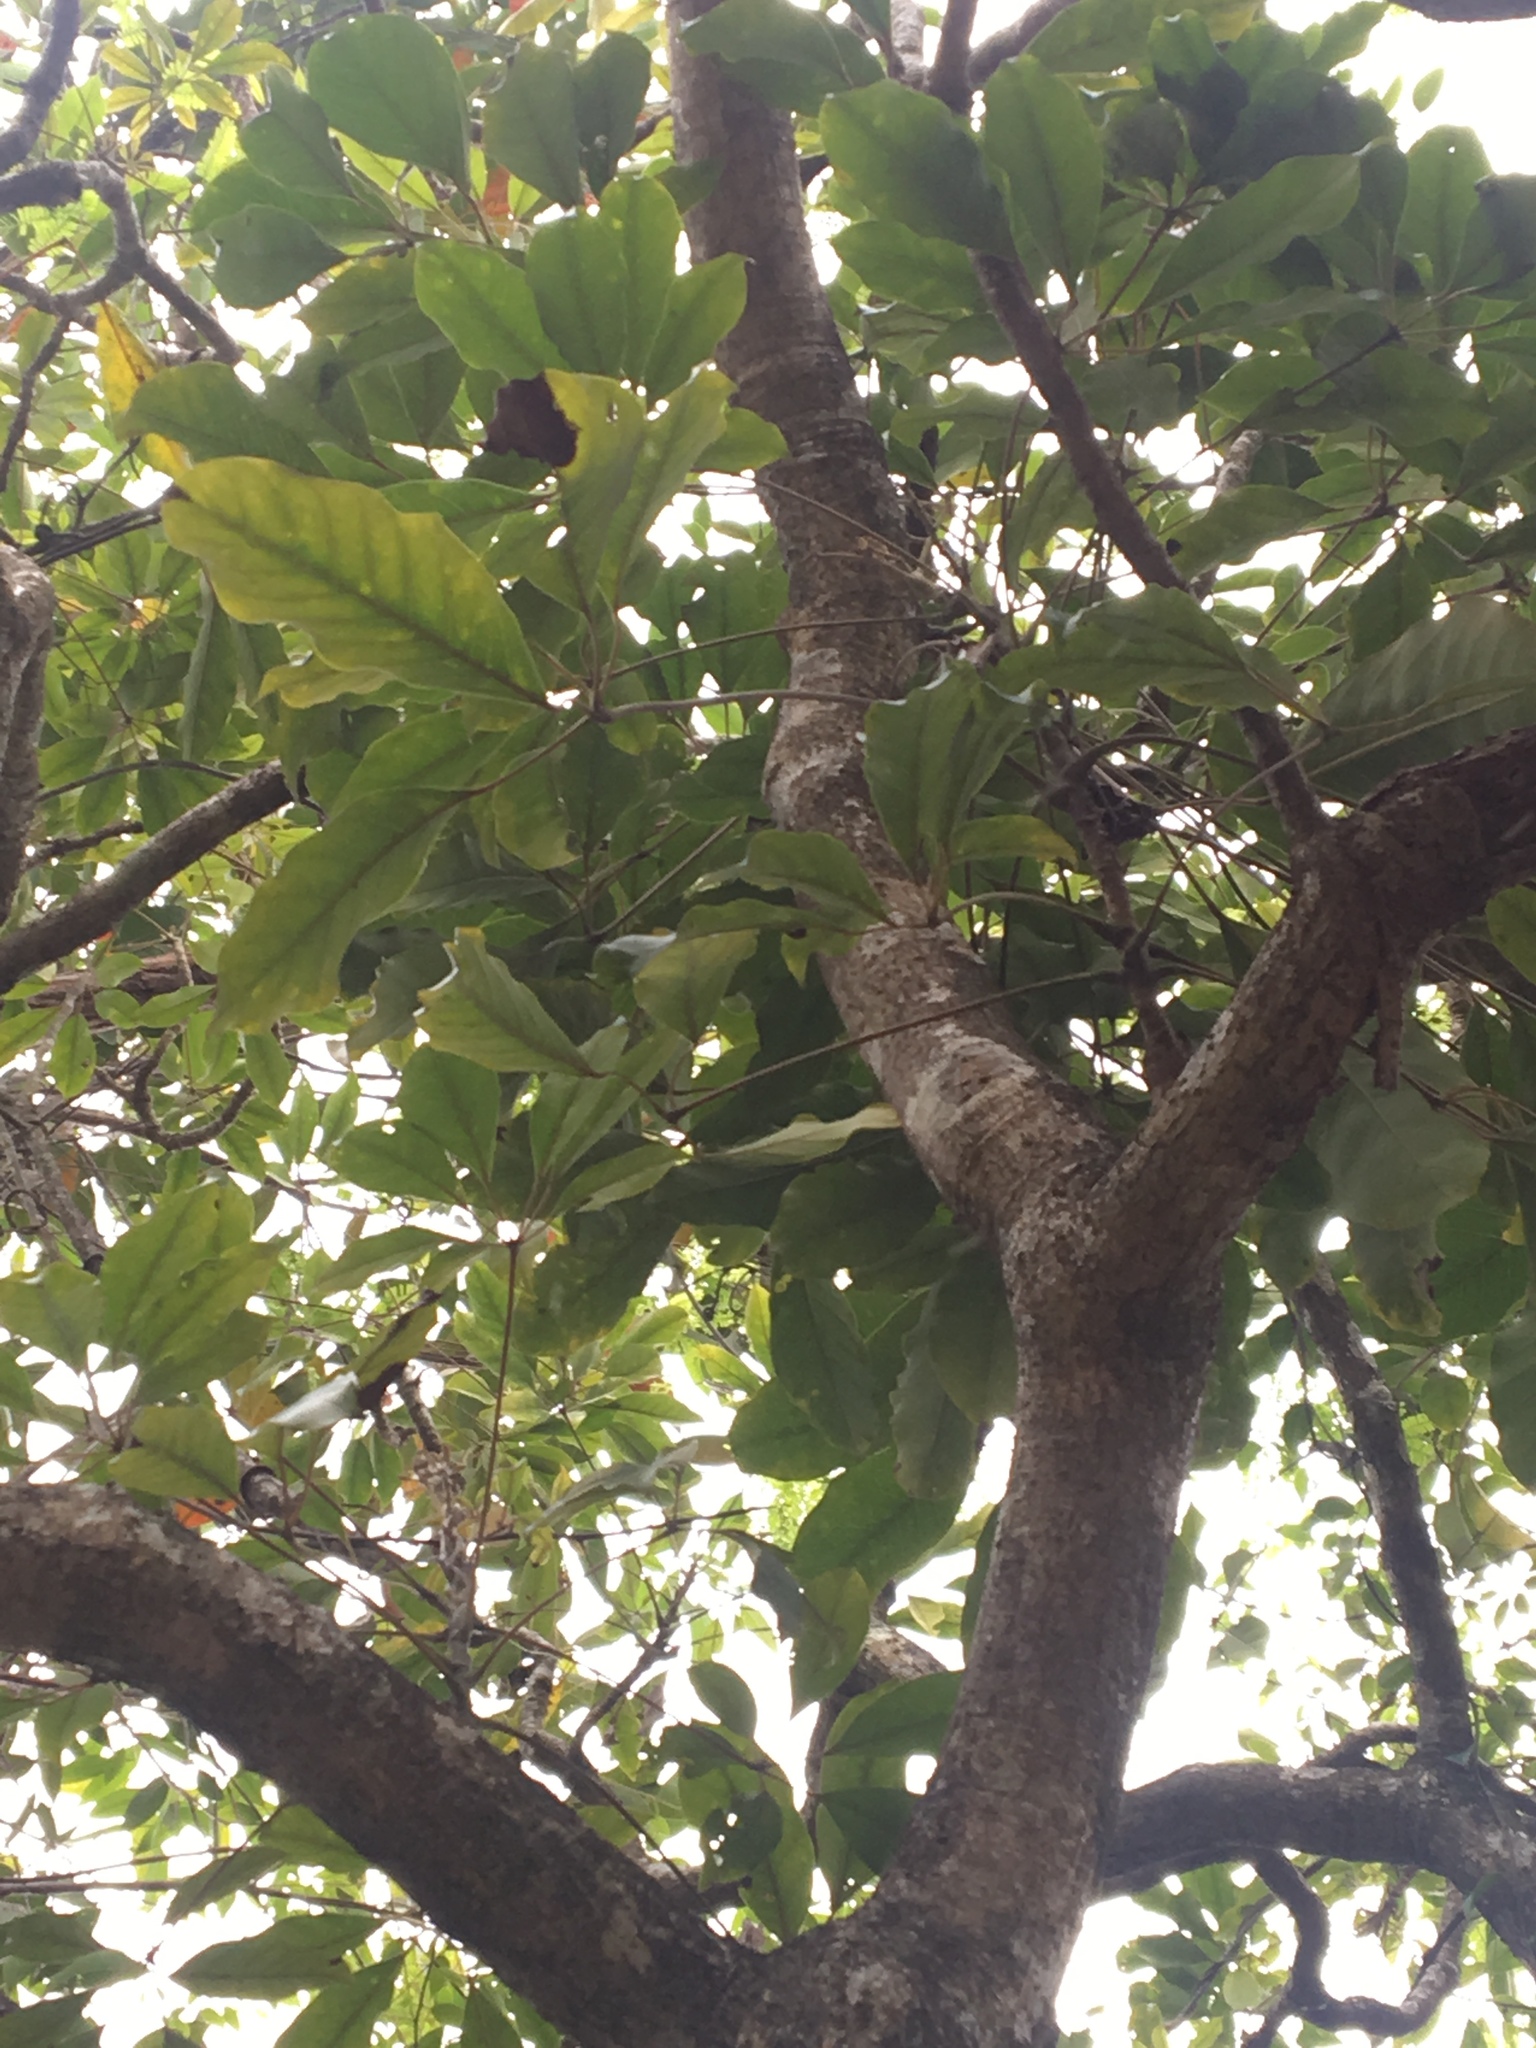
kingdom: Plantae
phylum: Tracheophyta
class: Magnoliopsida
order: Apiales
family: Araliaceae
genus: Heptapleurum
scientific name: Heptapleurum heptaphyllum
